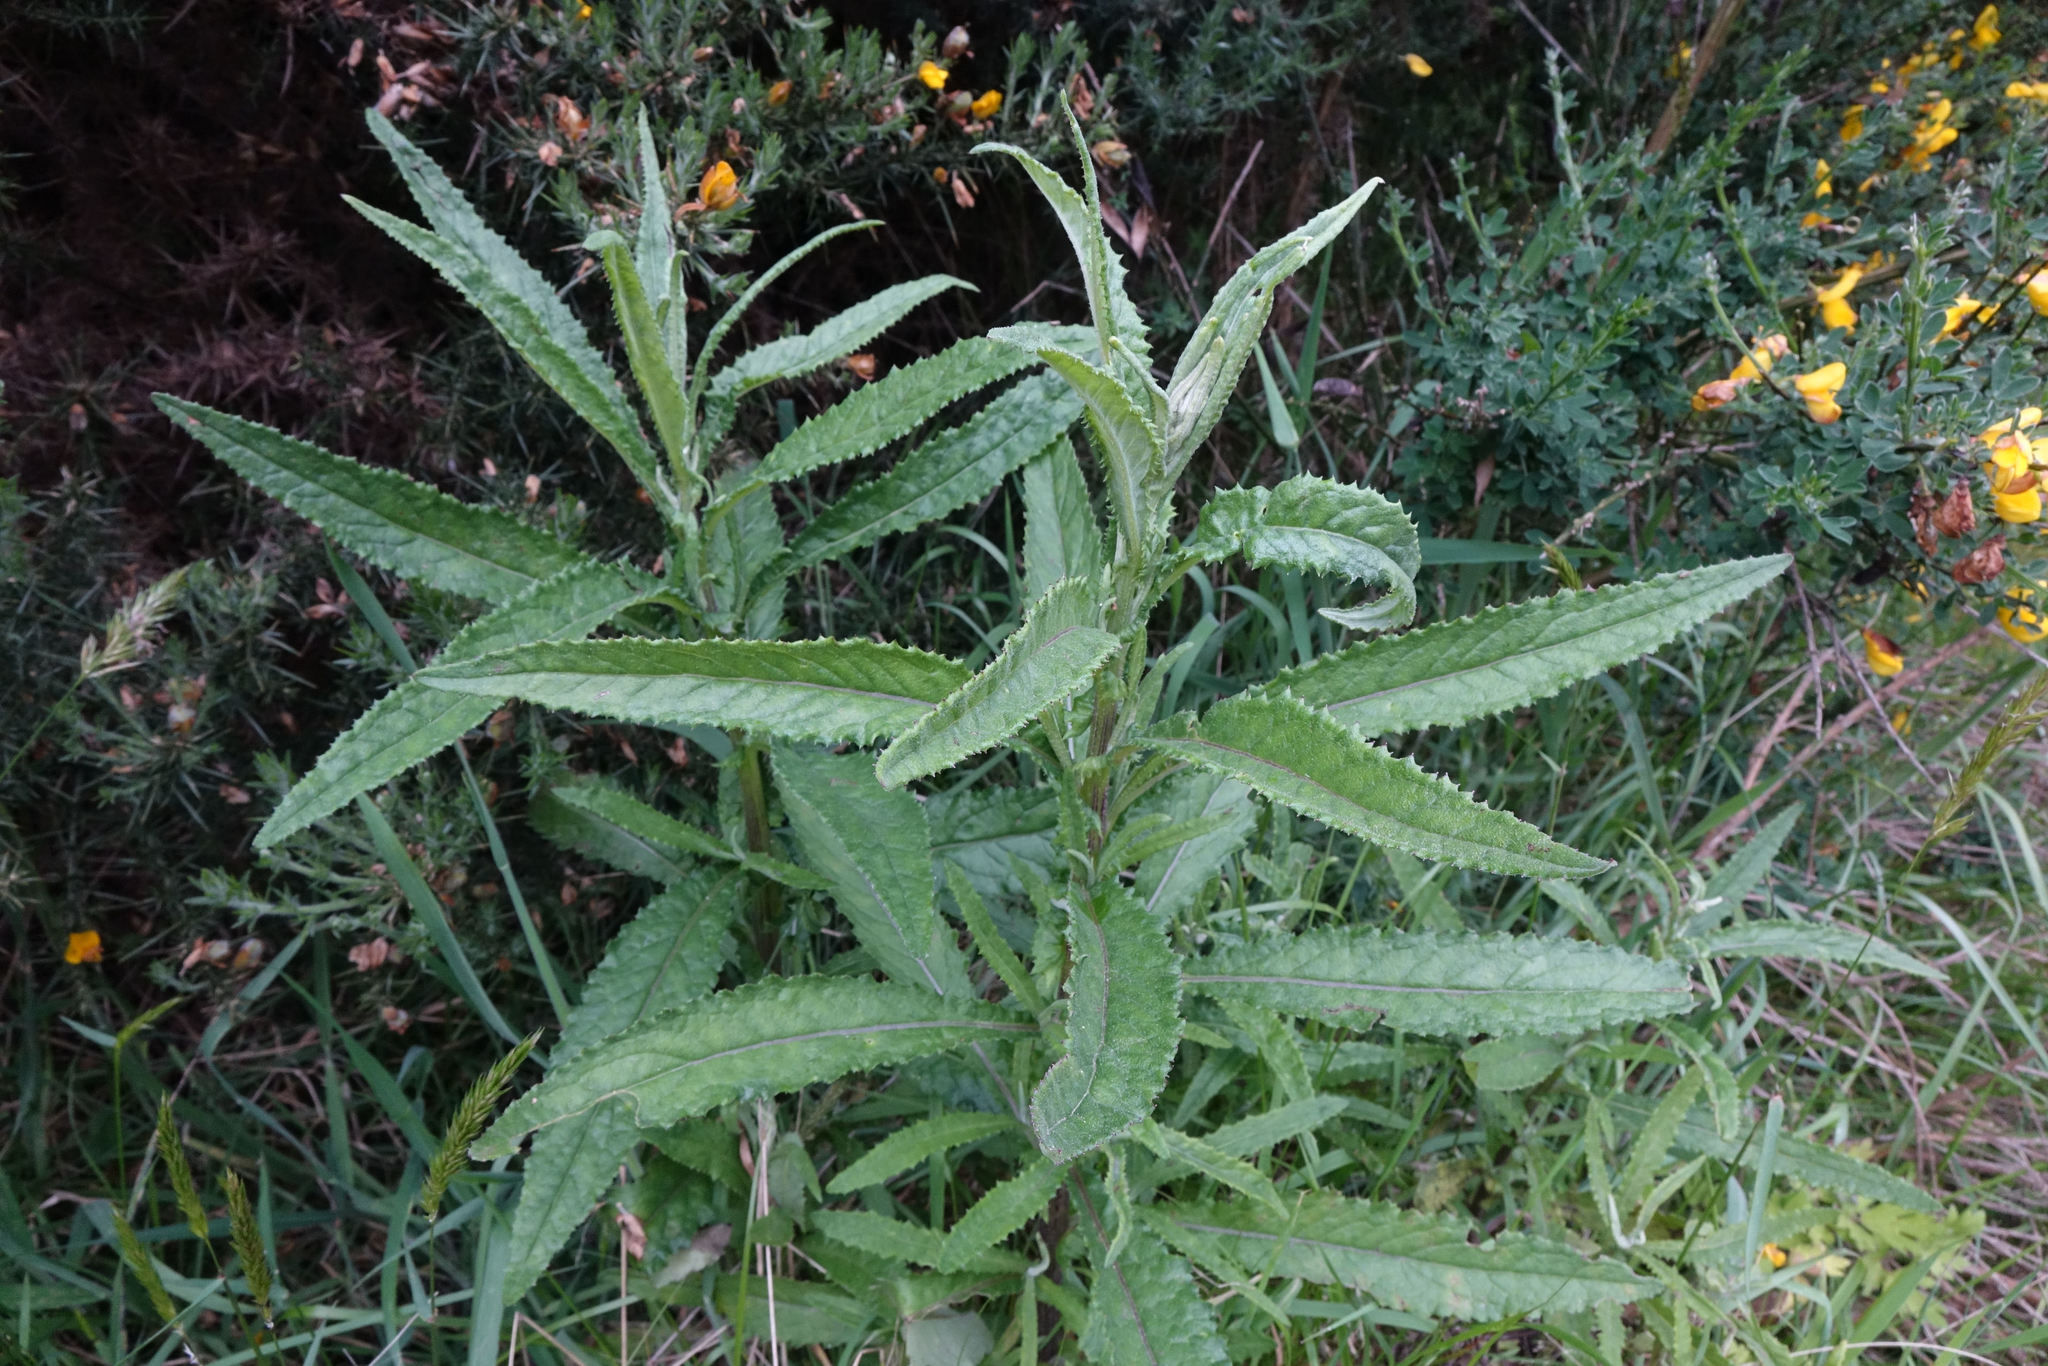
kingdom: Plantae
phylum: Tracheophyta
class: Magnoliopsida
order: Asterales
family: Asteraceae
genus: Senecio
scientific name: Senecio minimus
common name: Toothed fireweed
